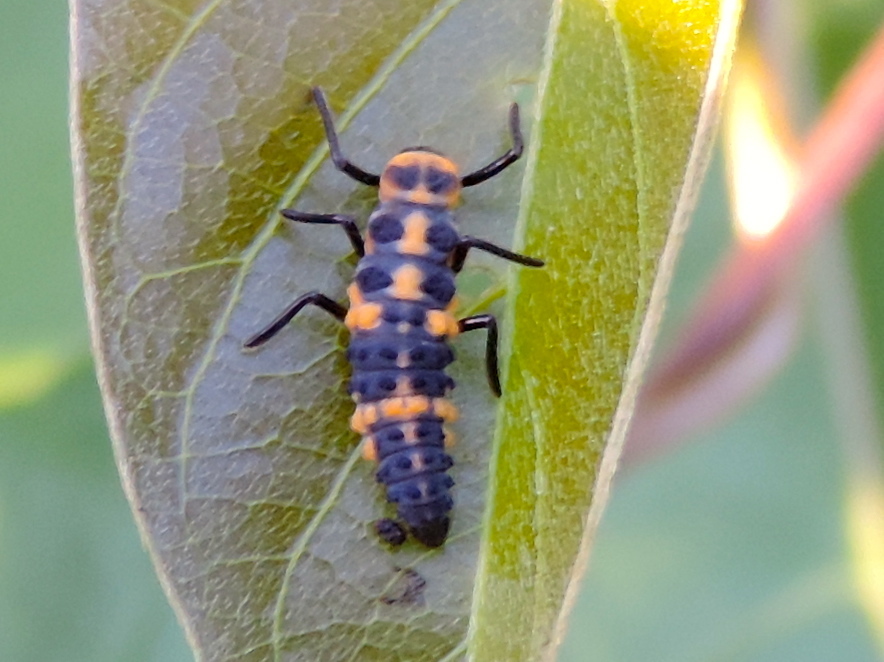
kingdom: Animalia
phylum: Arthropoda
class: Insecta
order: Coleoptera
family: Coccinellidae
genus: Cycloneda
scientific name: Cycloneda sanguinea
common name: Ladybird beetle
